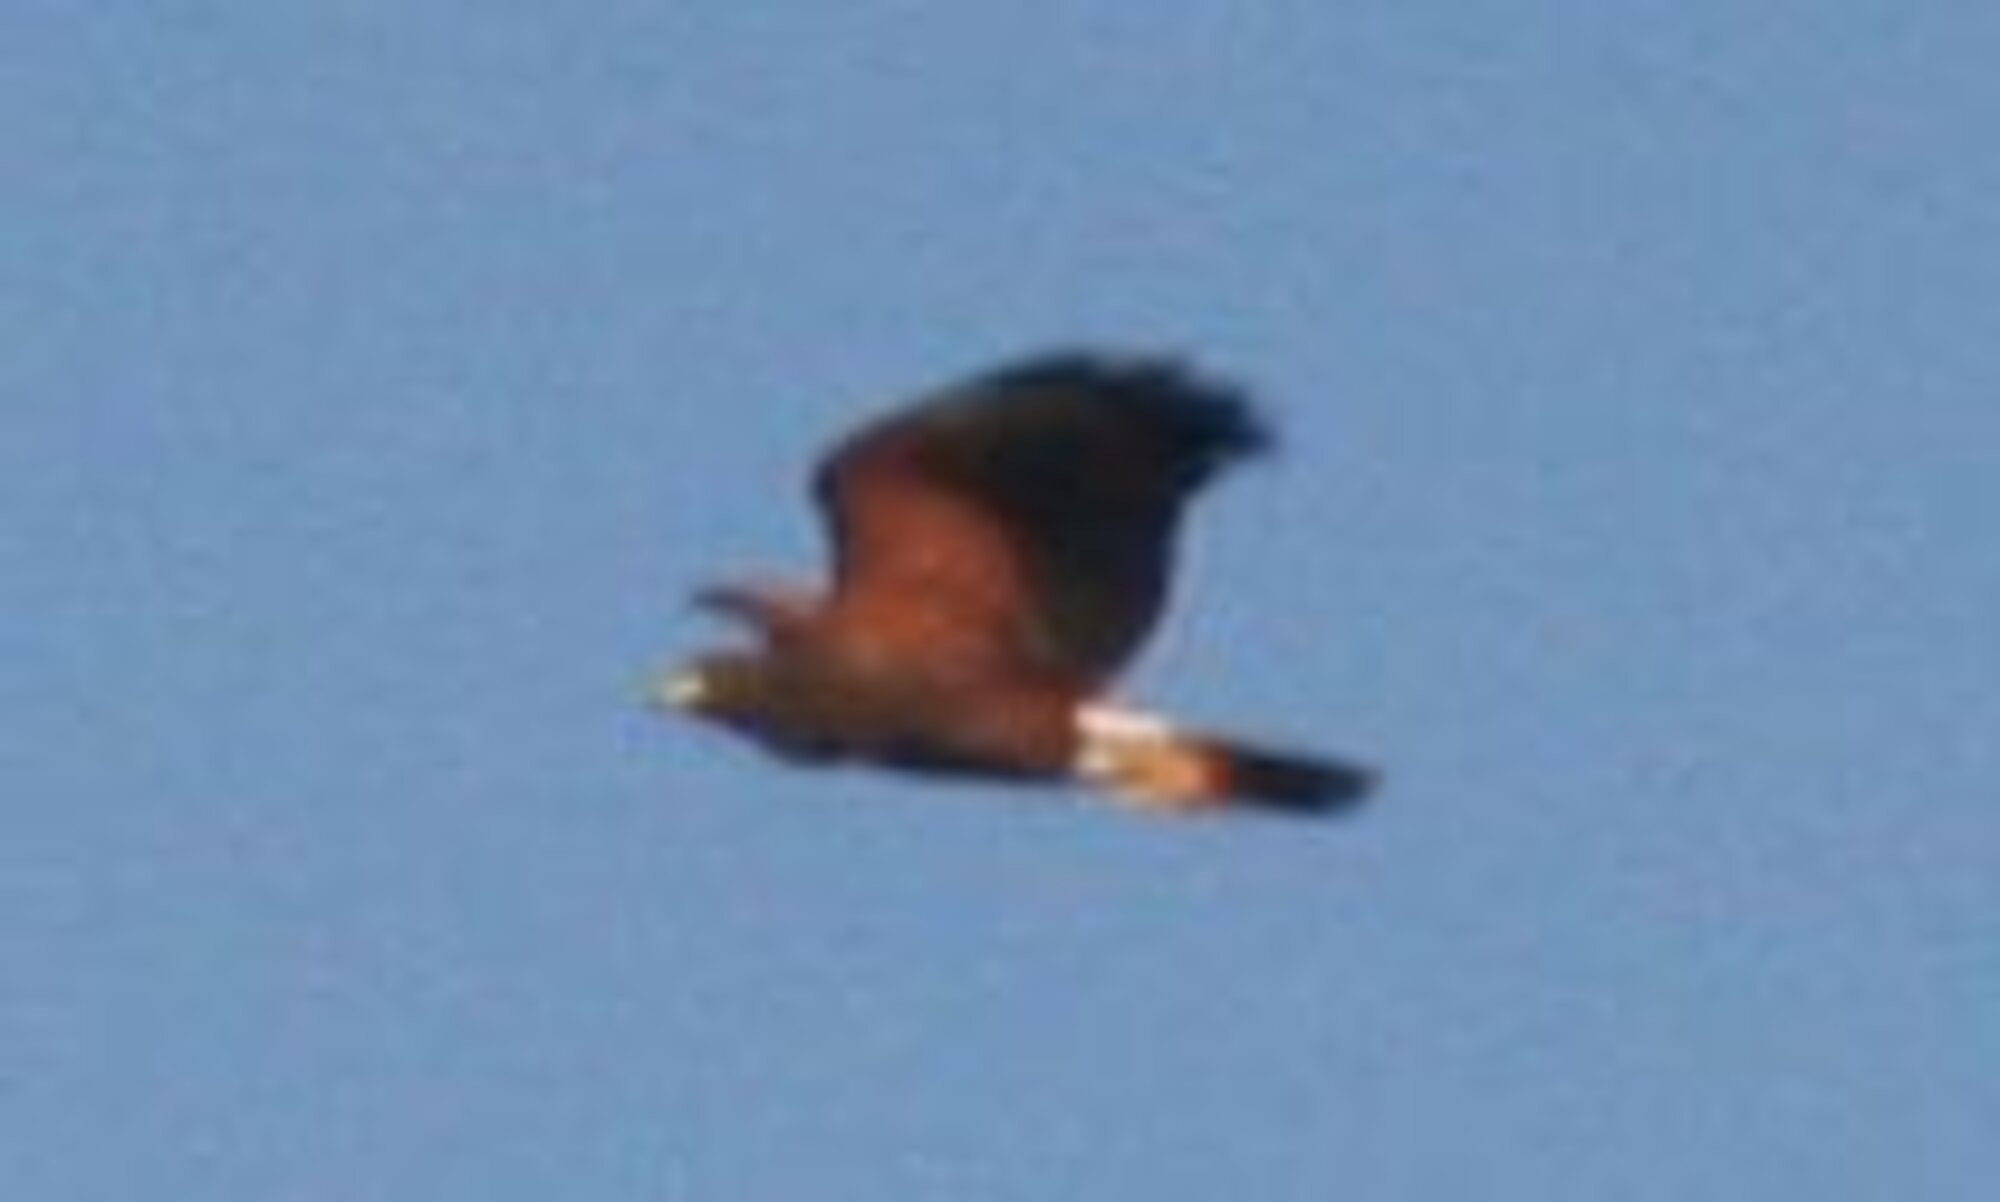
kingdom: Animalia
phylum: Chordata
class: Aves
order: Accipitriformes
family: Accipitridae
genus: Parabuteo
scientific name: Parabuteo unicinctus
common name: Harris's hawk
